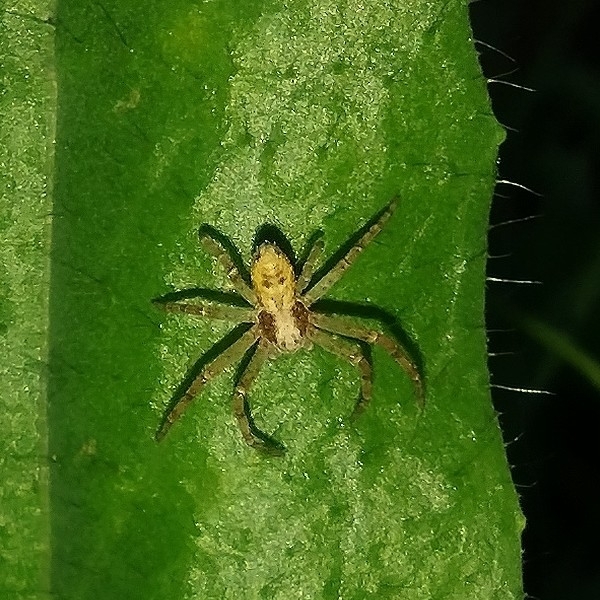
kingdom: Animalia
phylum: Arthropoda
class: Arachnida
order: Araneae
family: Philodromidae
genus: Philodromus
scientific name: Philodromus
